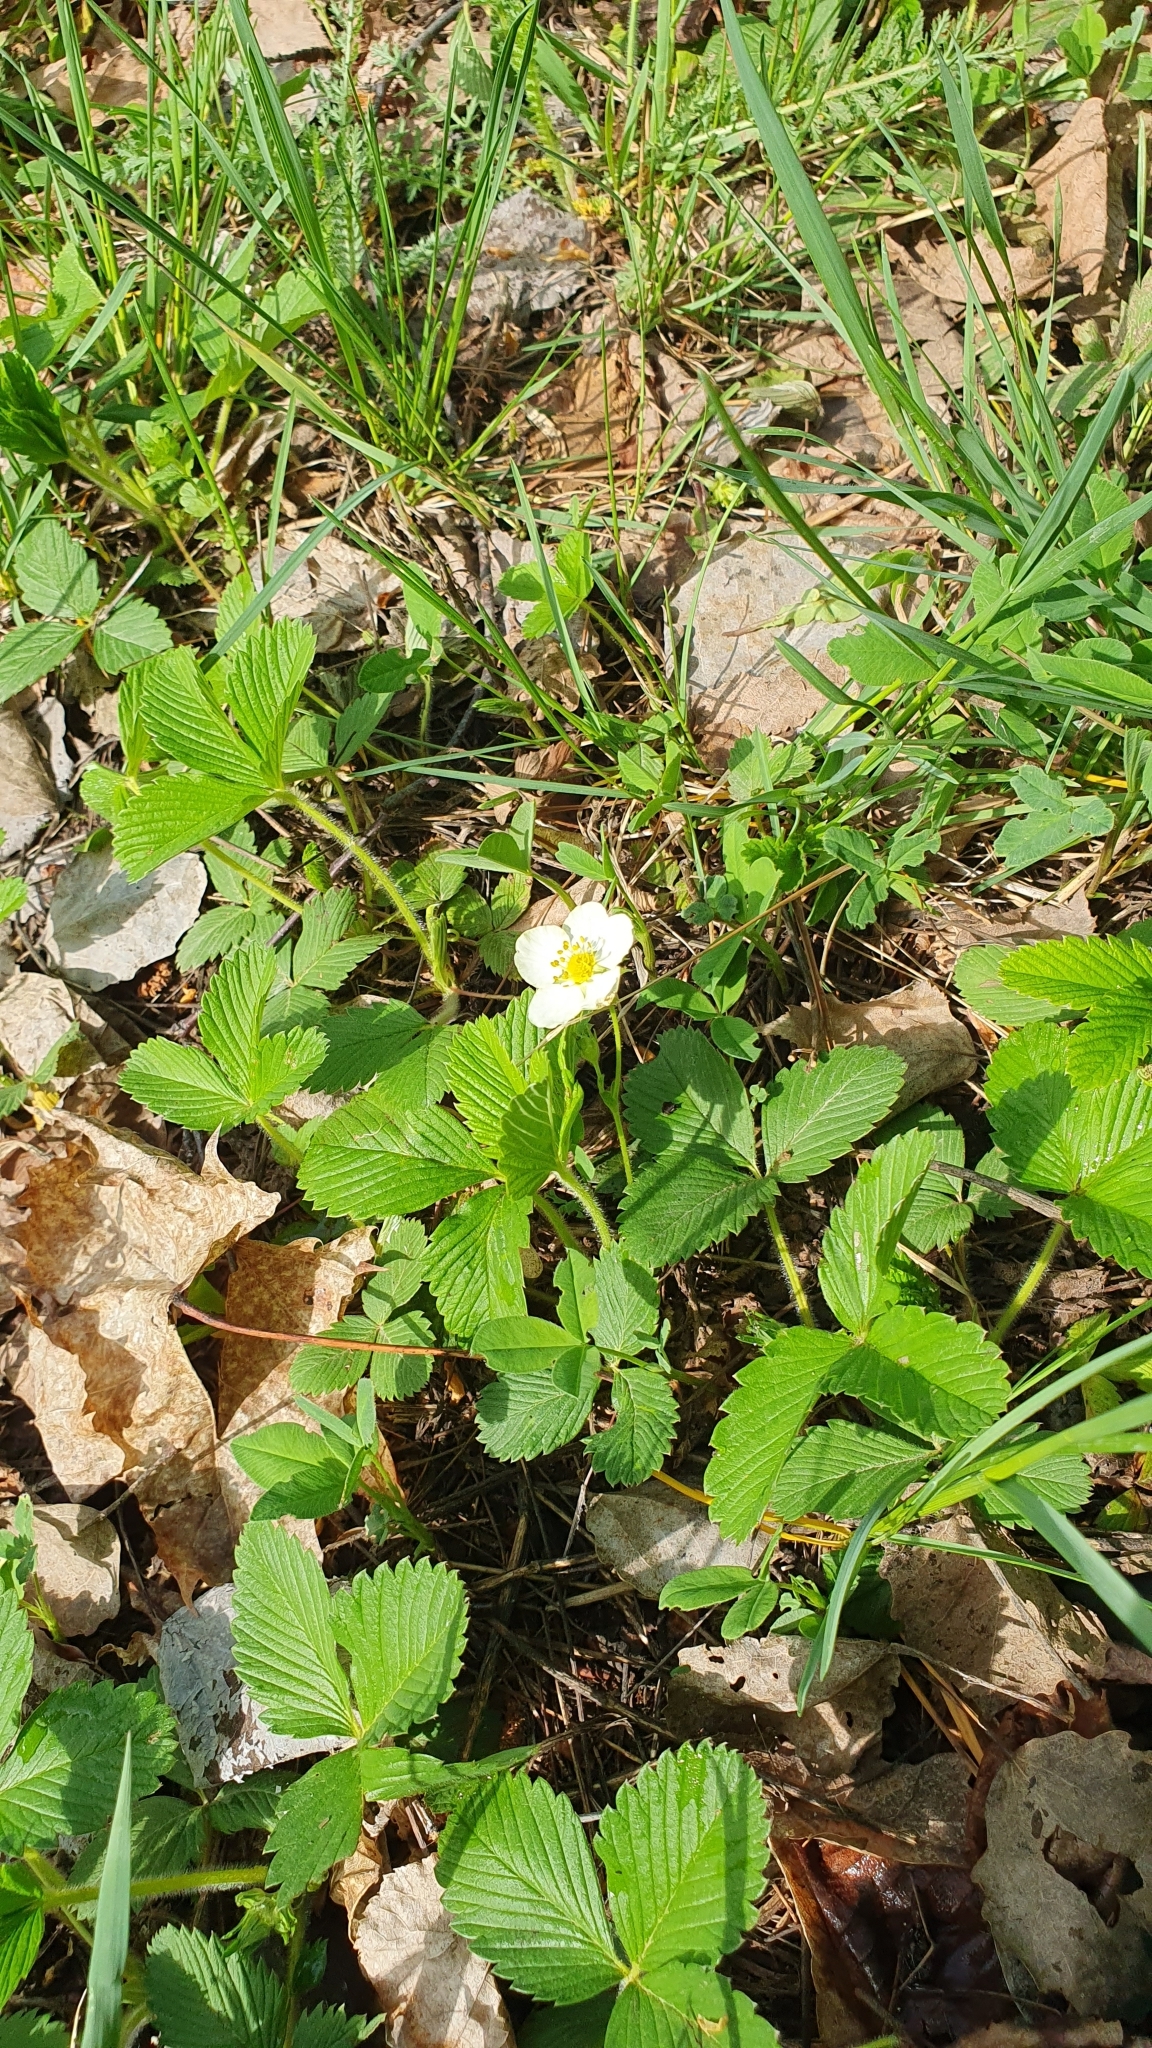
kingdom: Plantae
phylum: Tracheophyta
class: Magnoliopsida
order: Rosales
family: Rosaceae
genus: Fragaria
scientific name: Fragaria viridis
